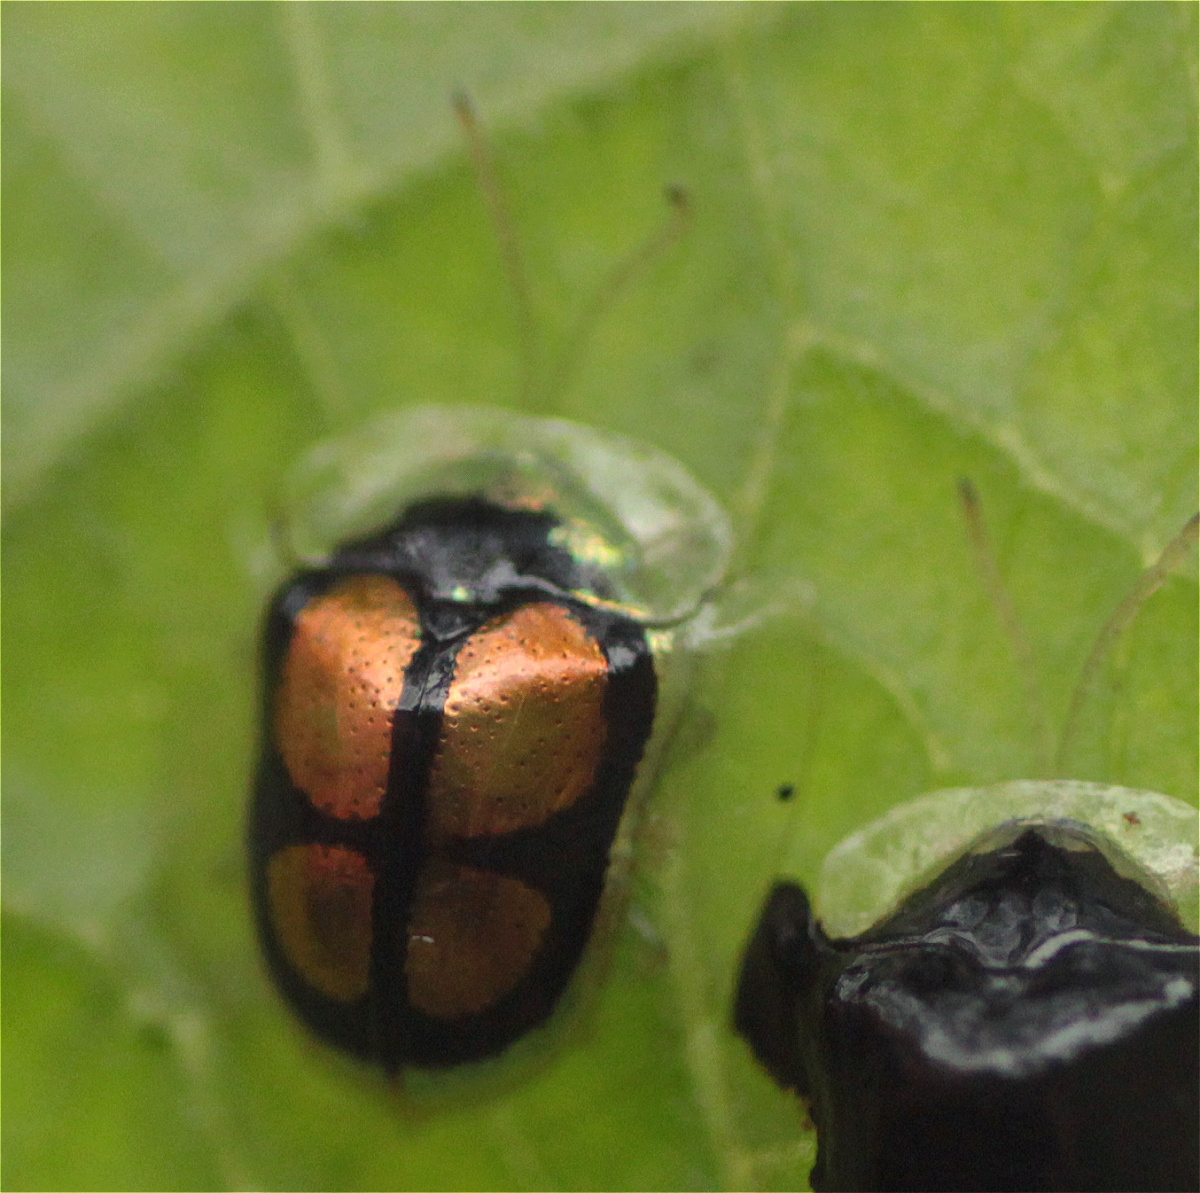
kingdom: Animalia
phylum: Arthropoda
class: Insecta
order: Coleoptera
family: Chrysomelidae
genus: Plagiometriona
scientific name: Plagiometriona pehlkei
